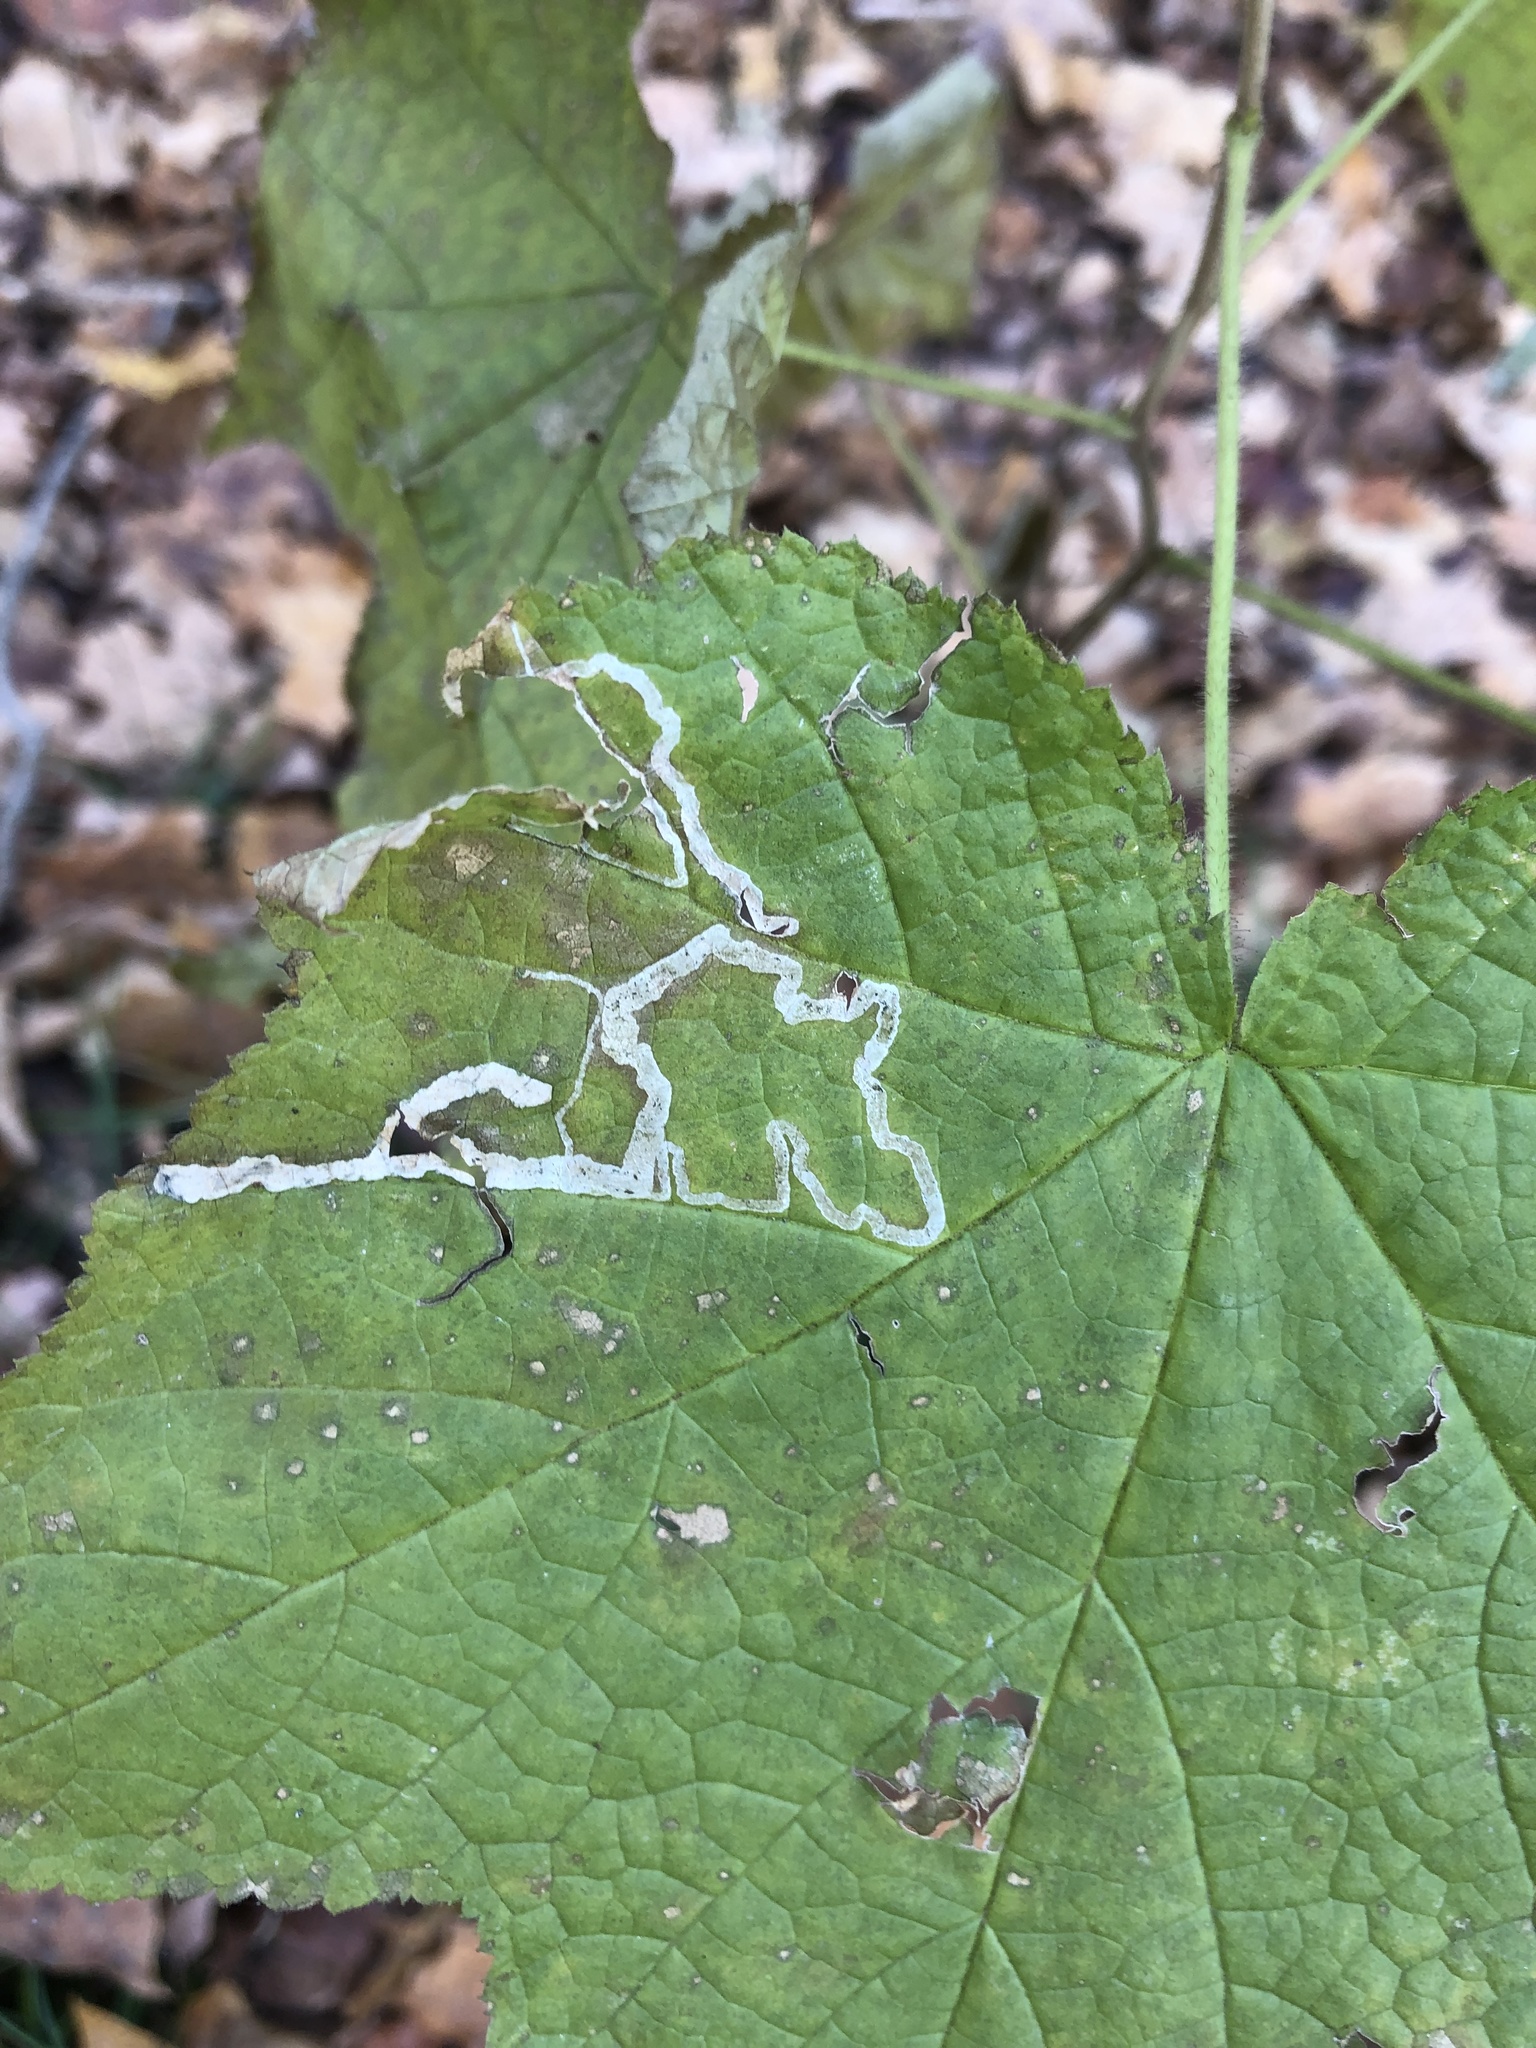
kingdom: Animalia
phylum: Arthropoda
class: Insecta
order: Diptera
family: Agromyzidae
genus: Agromyza
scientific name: Agromyza vockerothi
